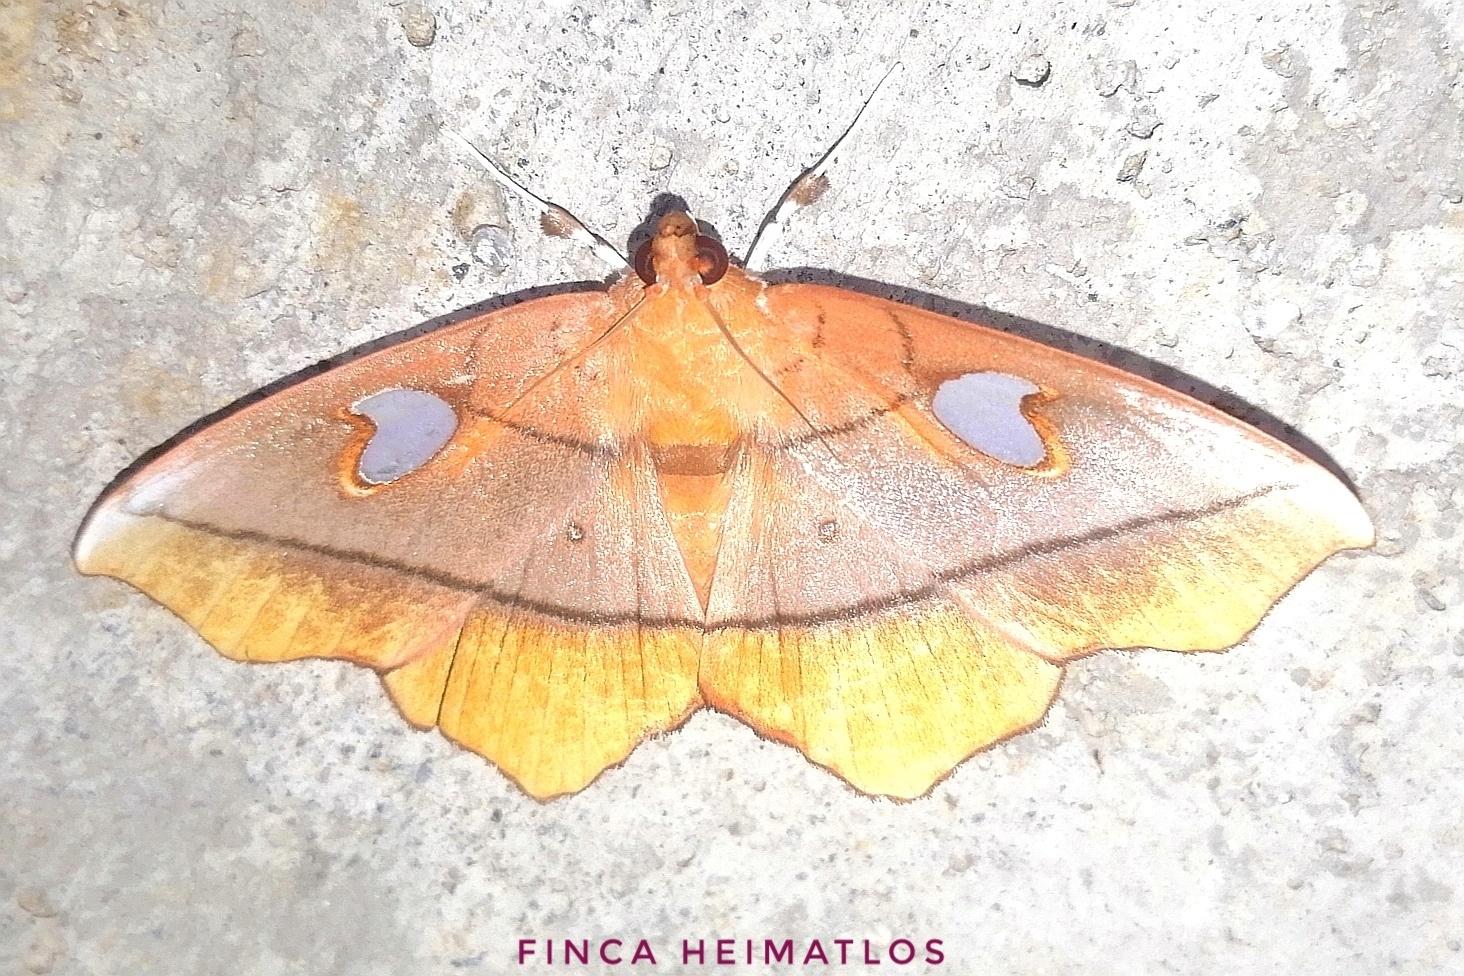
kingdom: Animalia
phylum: Arthropoda
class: Insecta
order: Lepidoptera
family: Crambidae
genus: Midila
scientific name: Midila poppaea
